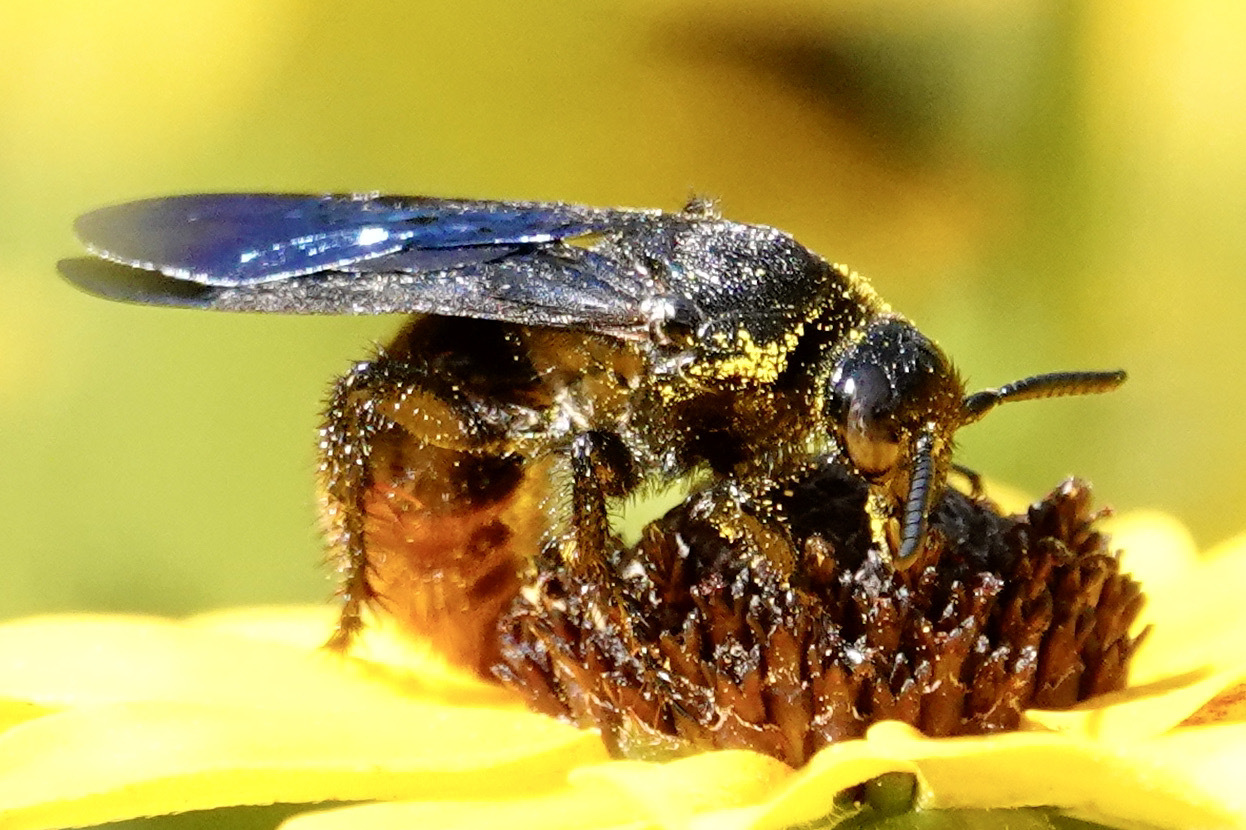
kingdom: Animalia
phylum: Arthropoda
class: Insecta
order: Hymenoptera
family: Scoliidae
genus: Scolia
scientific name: Scolia dubia
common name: Blue-winged scoliid wasp
